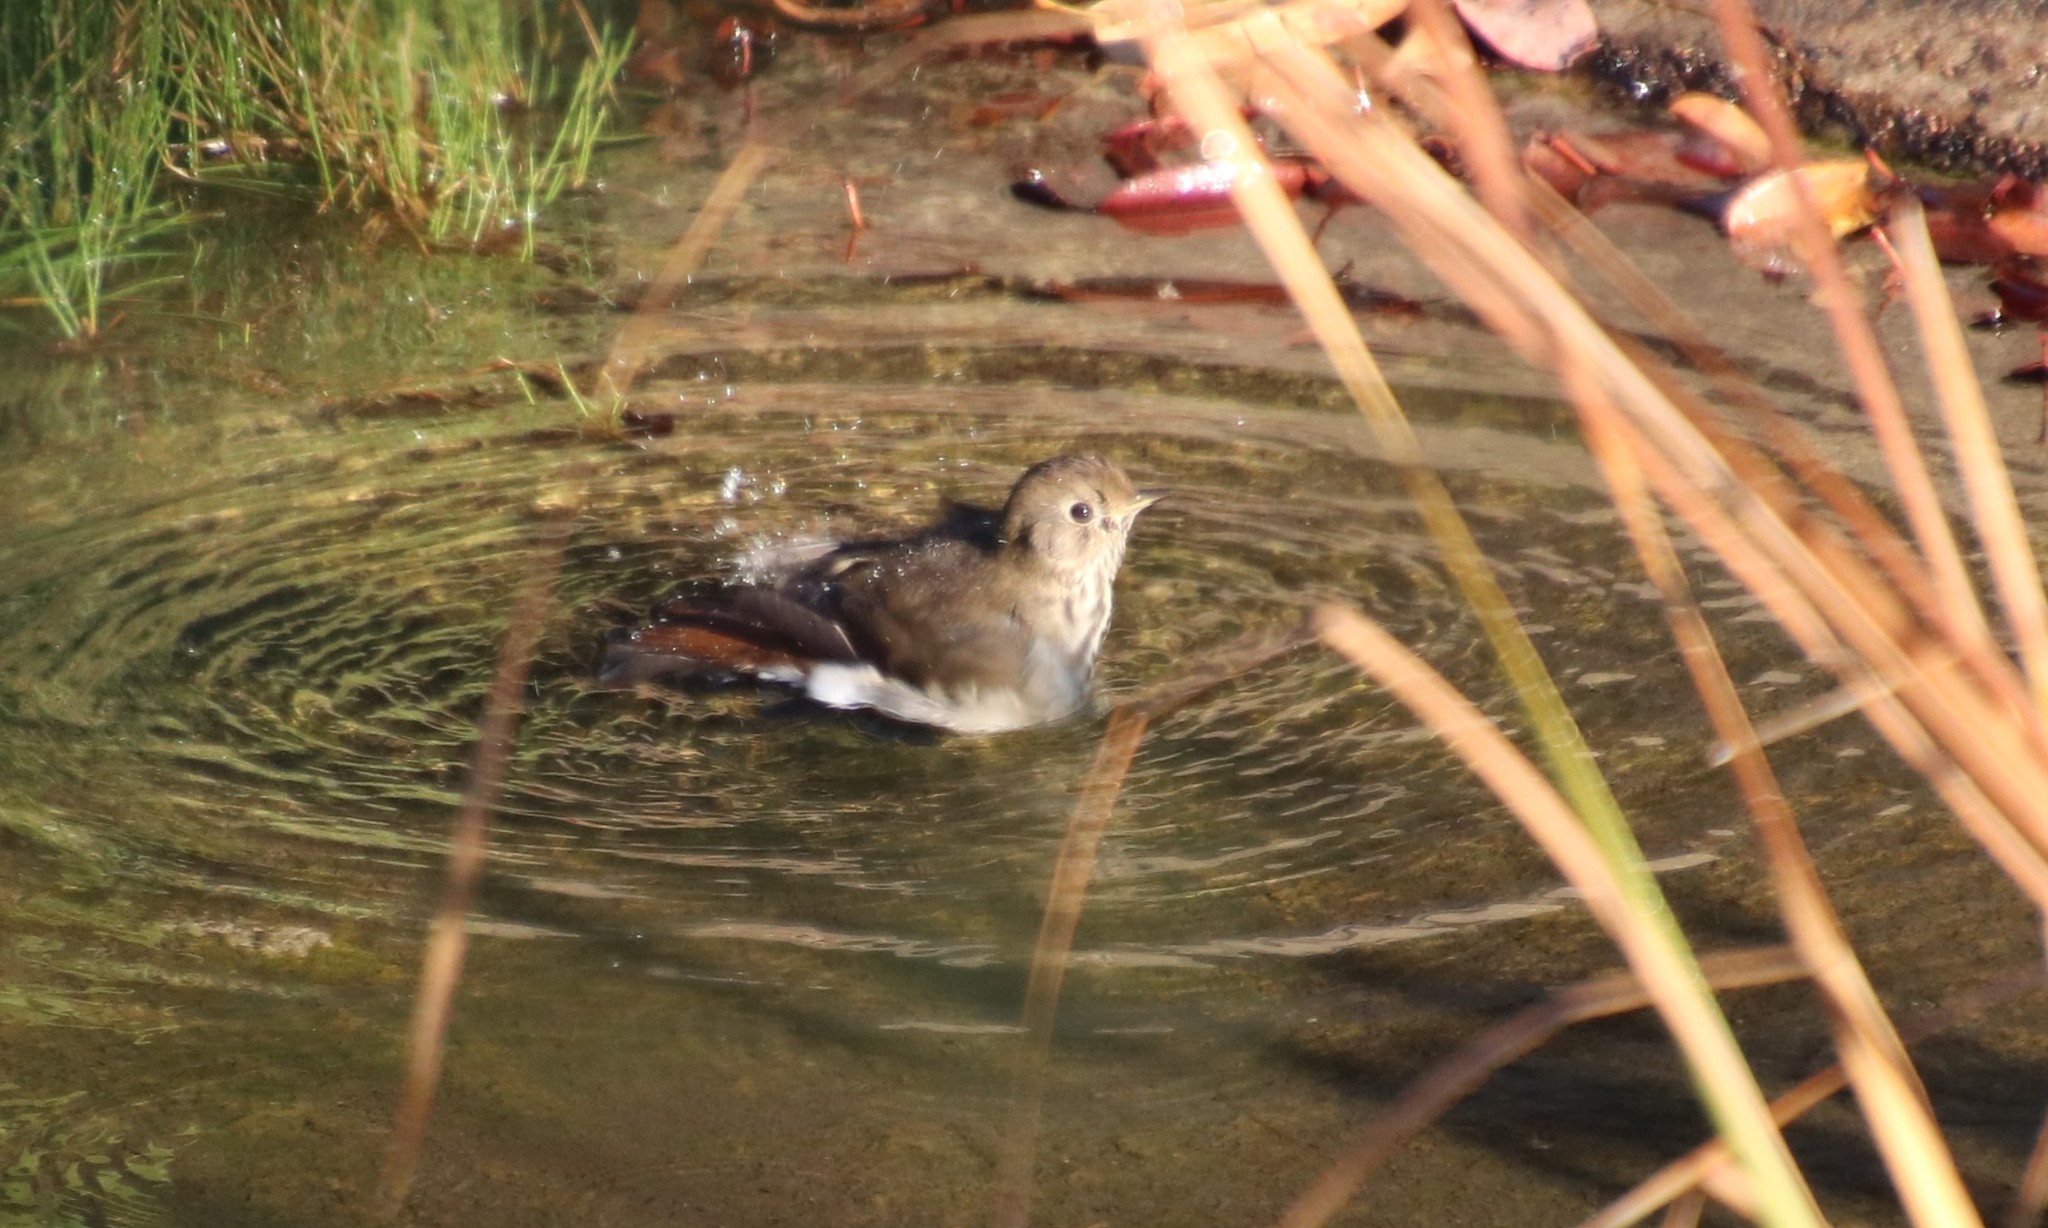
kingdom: Animalia
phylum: Chordata
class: Aves
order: Passeriformes
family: Turdidae
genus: Catharus
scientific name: Catharus guttatus
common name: Hermit thrush
